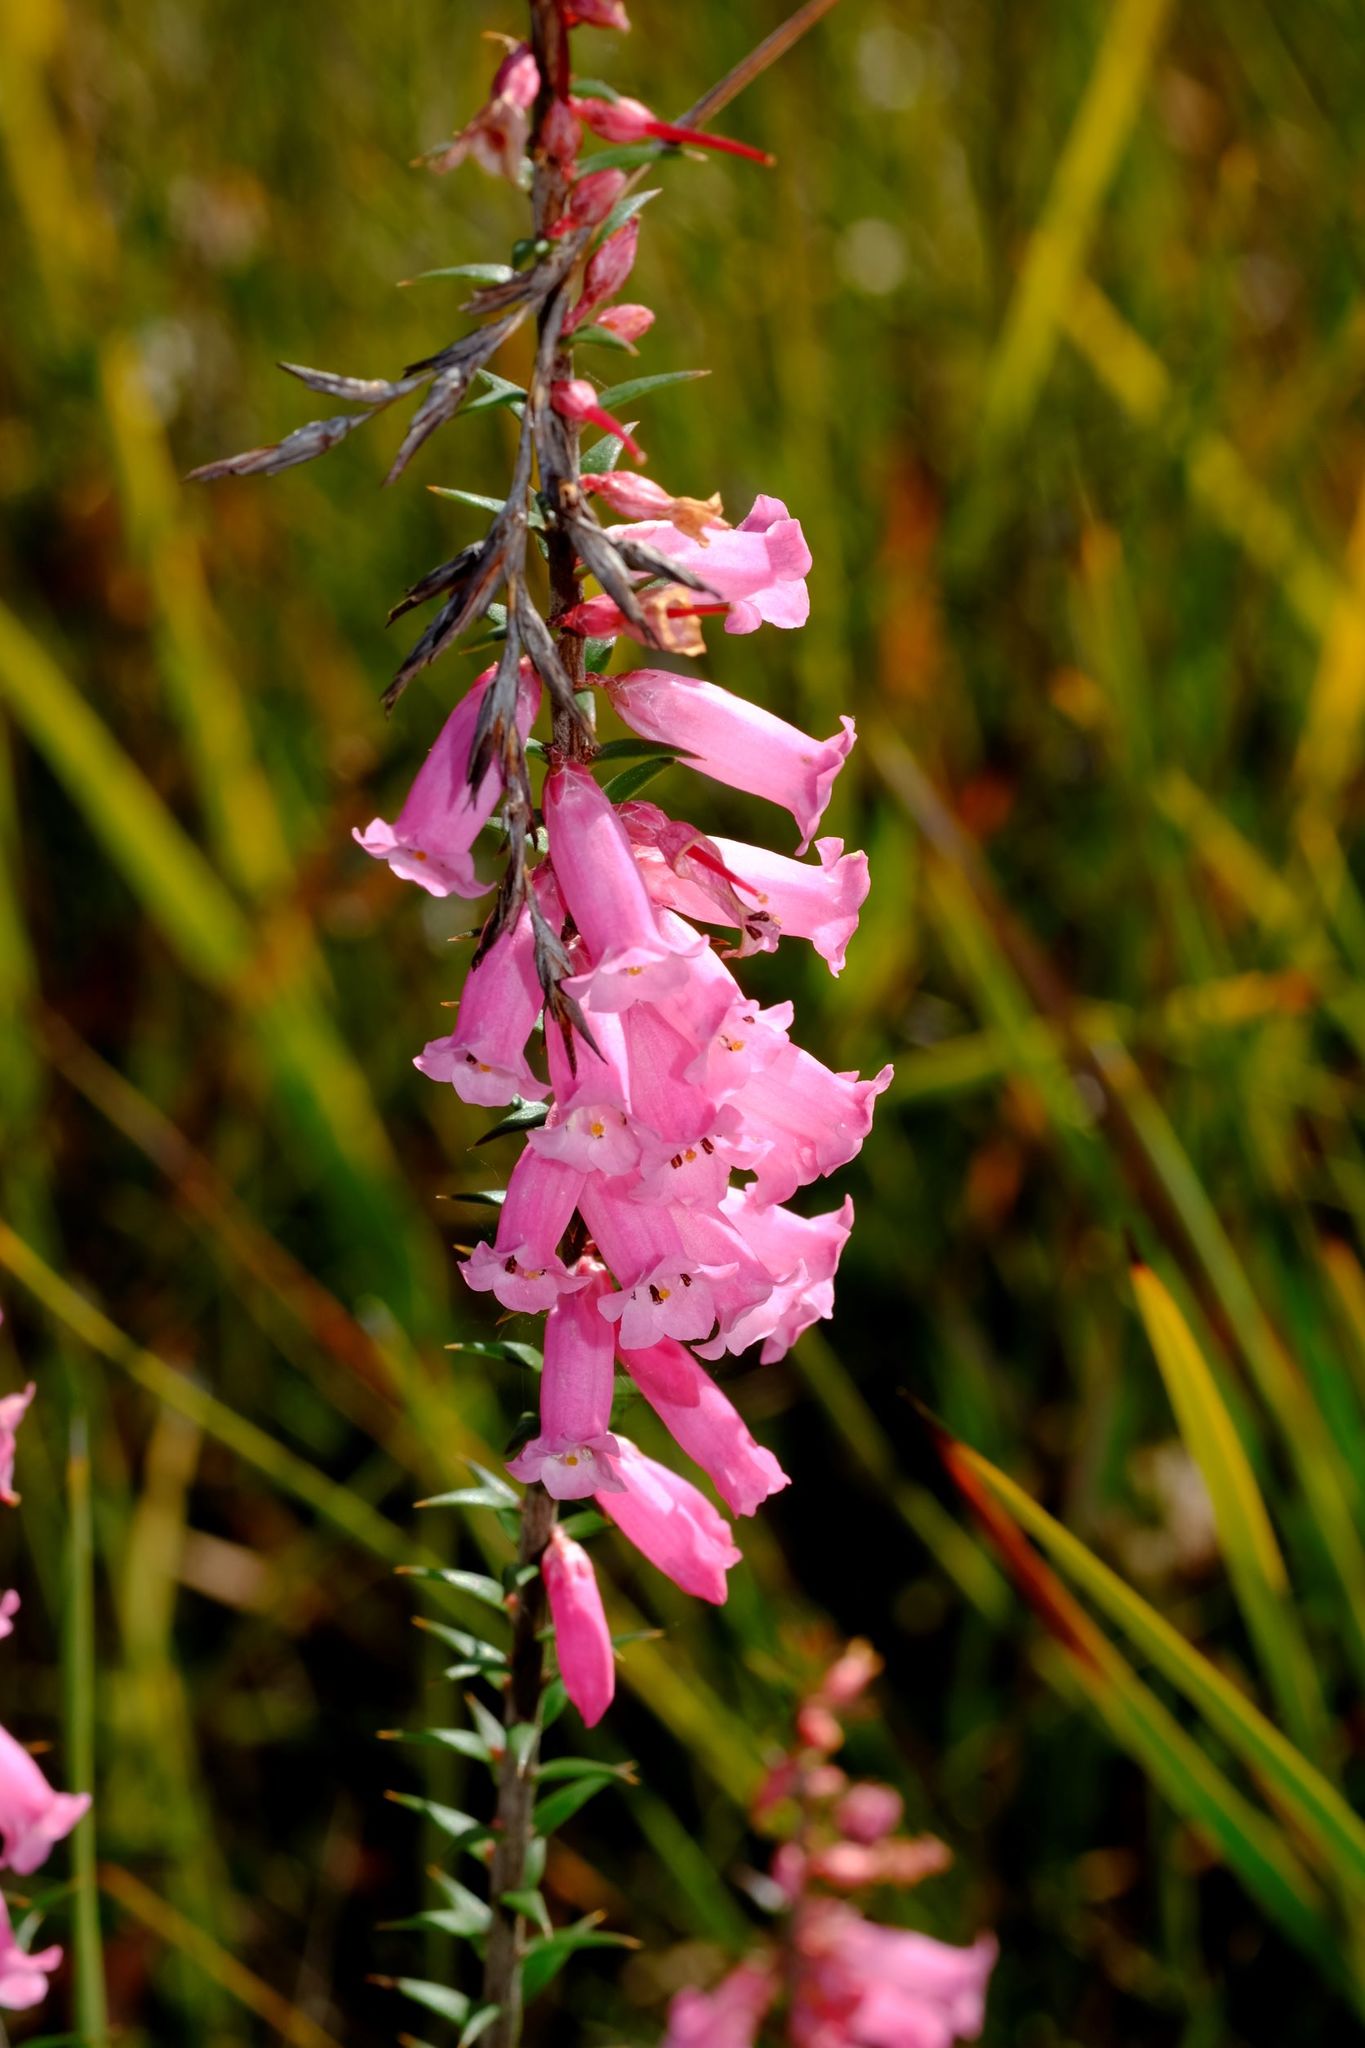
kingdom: Plantae
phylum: Tracheophyta
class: Magnoliopsida
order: Ericales
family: Ericaceae
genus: Epacris
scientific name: Epacris impressa
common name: Common-heath
